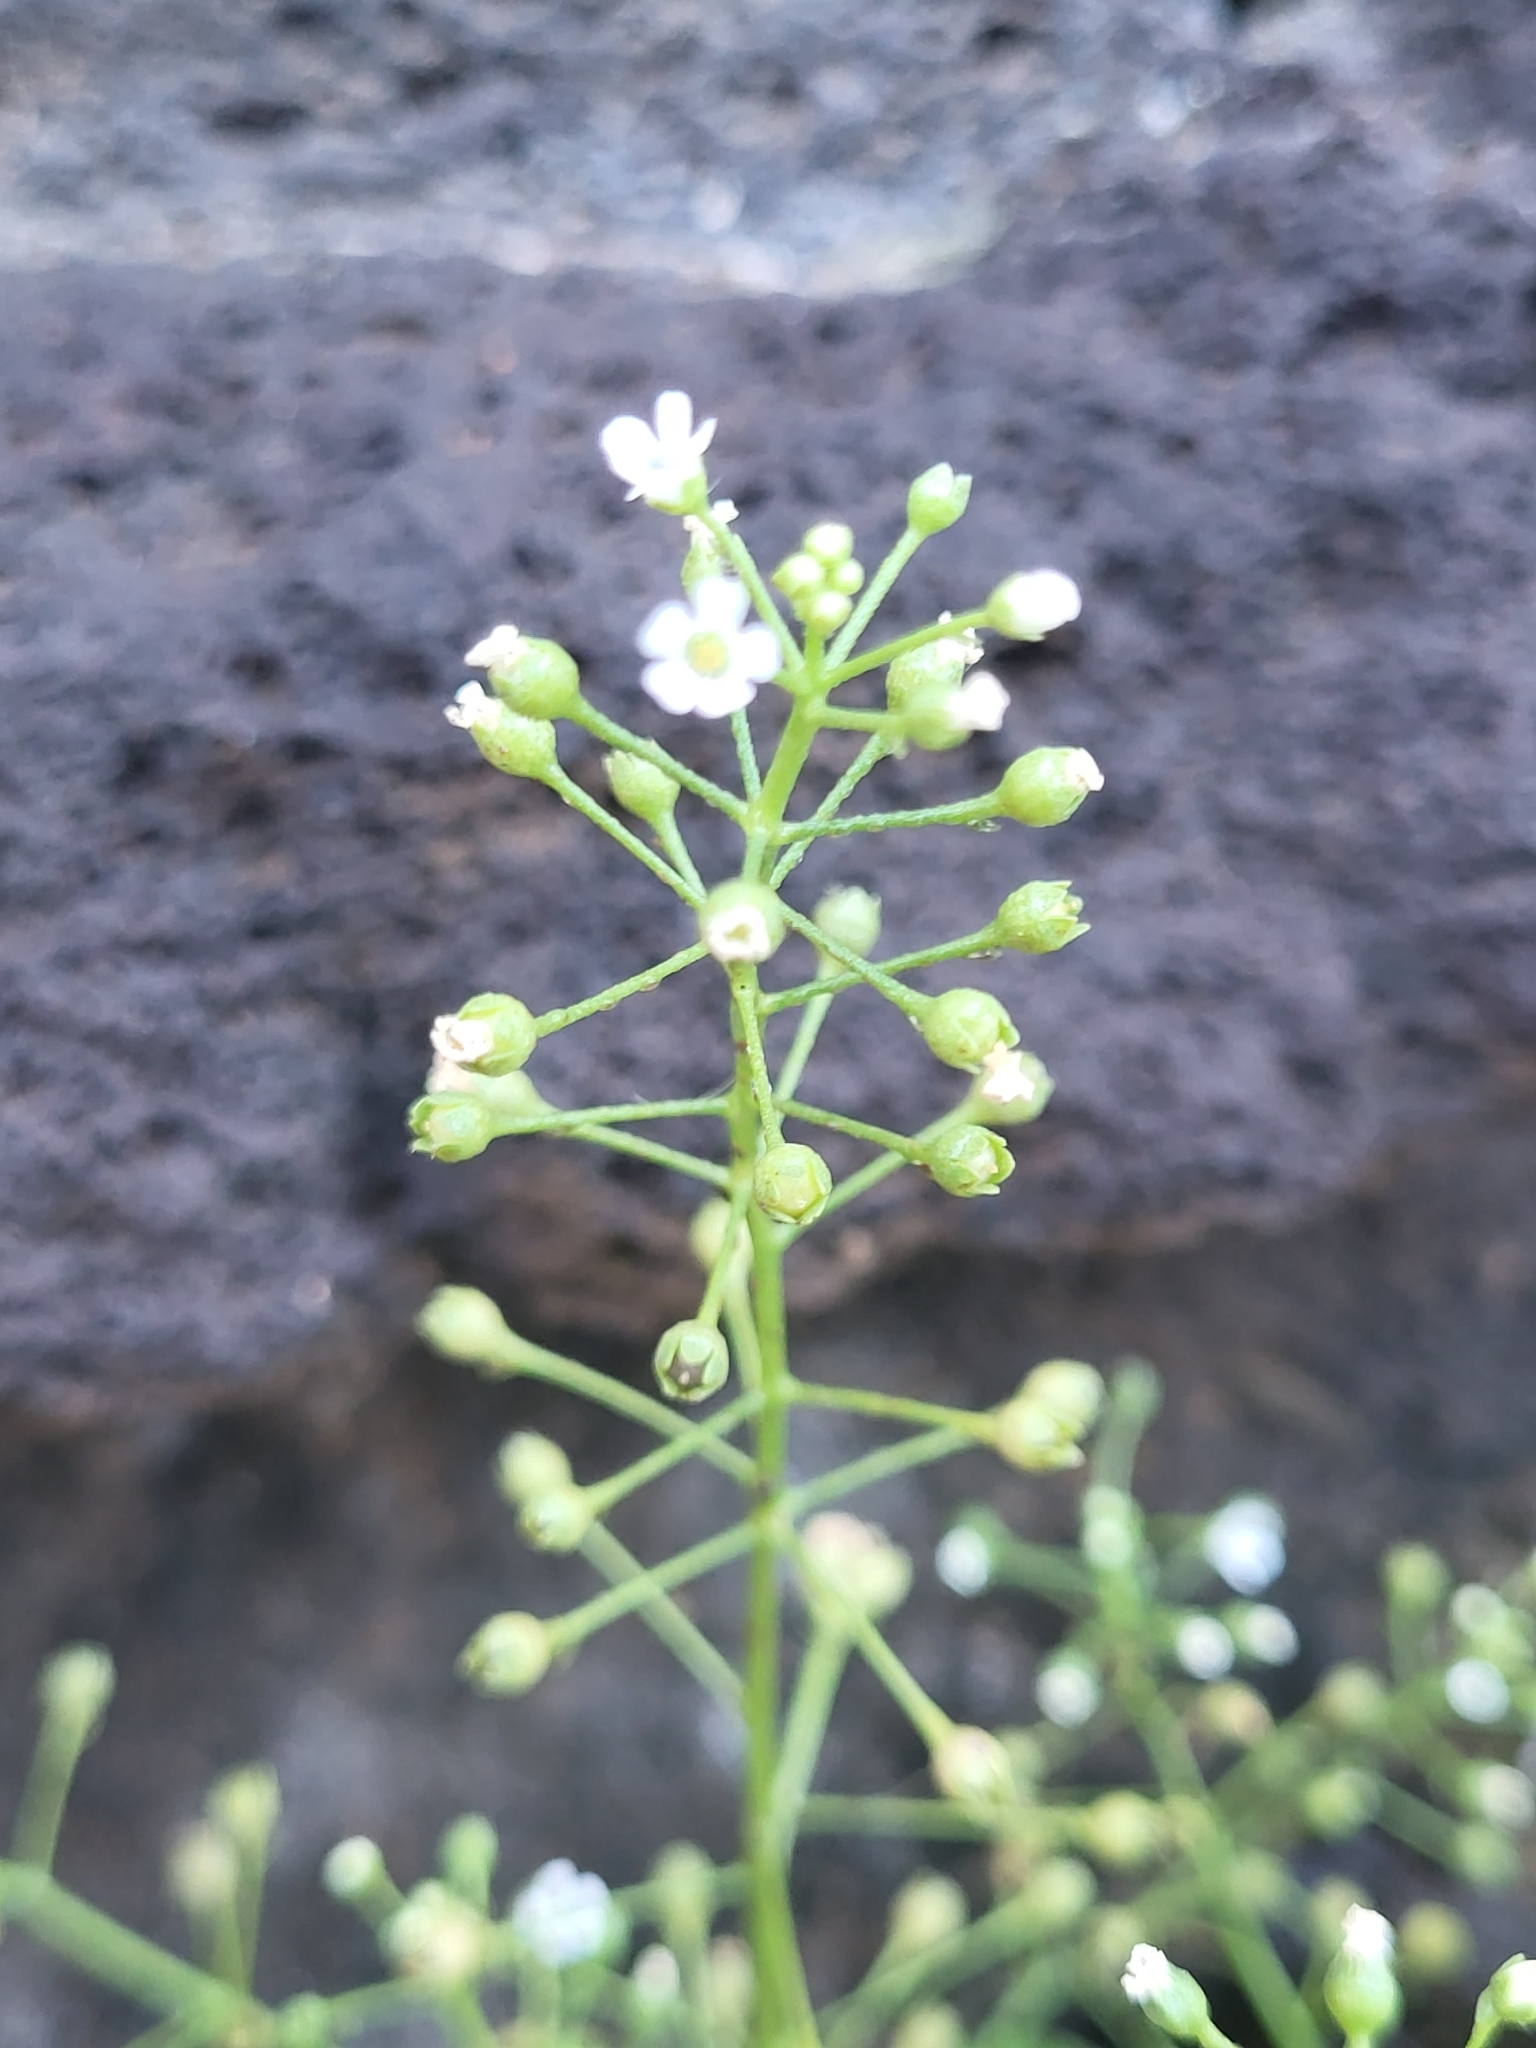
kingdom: Plantae
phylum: Tracheophyta
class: Magnoliopsida
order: Ericales
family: Primulaceae
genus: Samolus
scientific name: Samolus valerandi
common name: Brookweed
